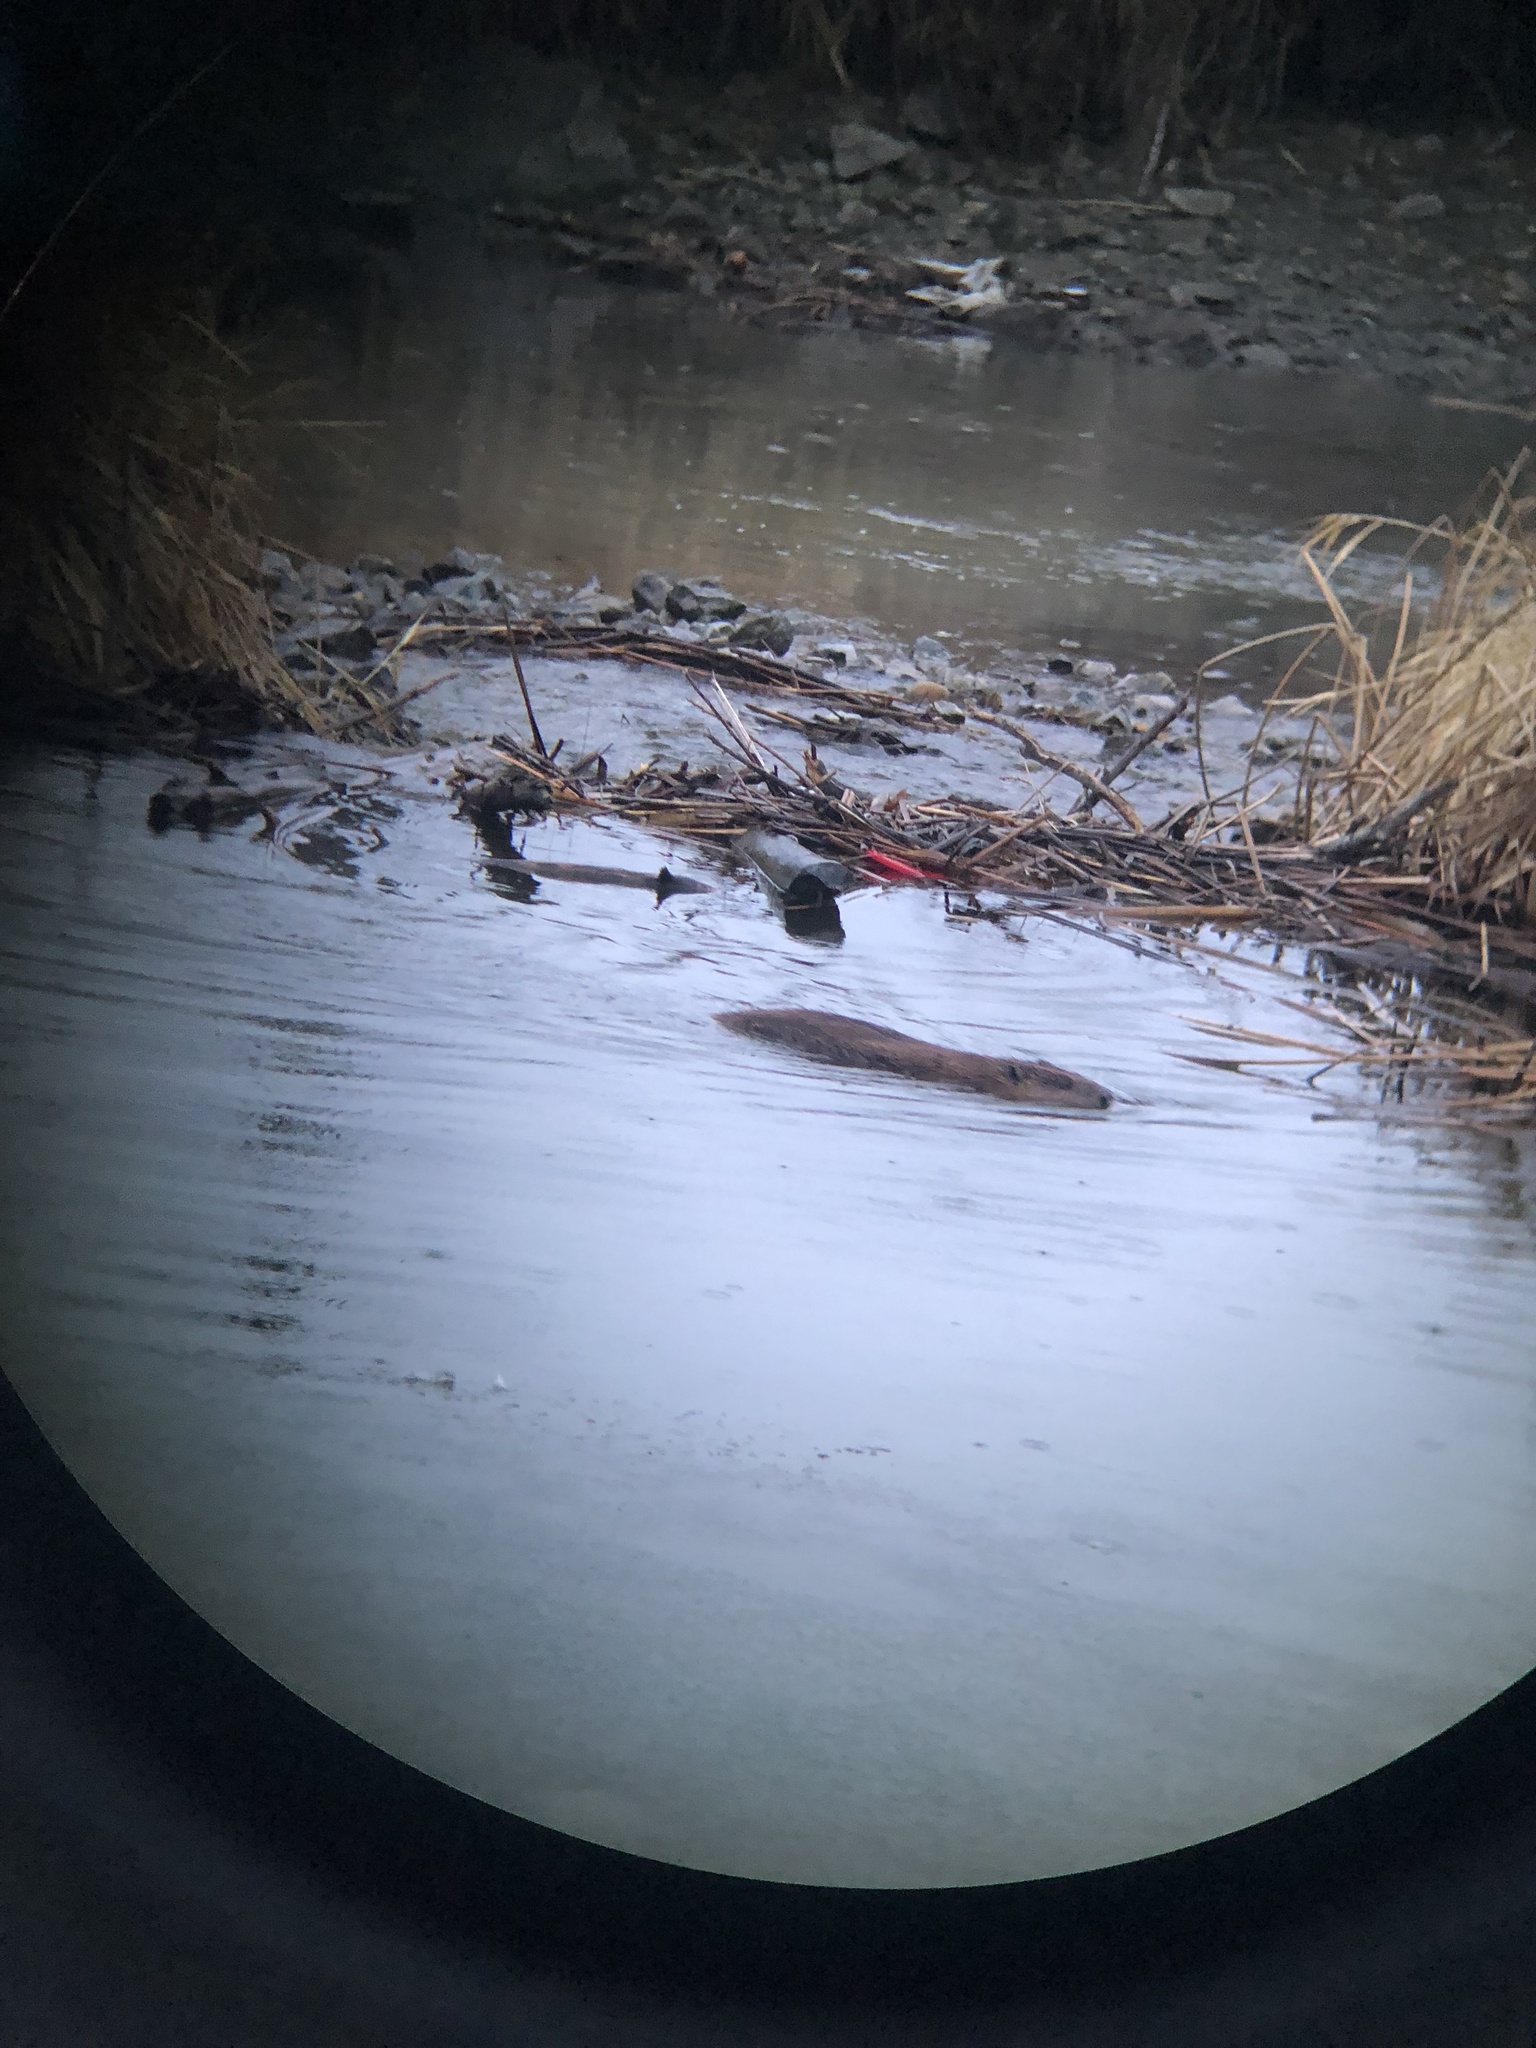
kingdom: Animalia
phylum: Chordata
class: Mammalia
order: Rodentia
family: Castoridae
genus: Castor
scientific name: Castor canadensis
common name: American beaver
